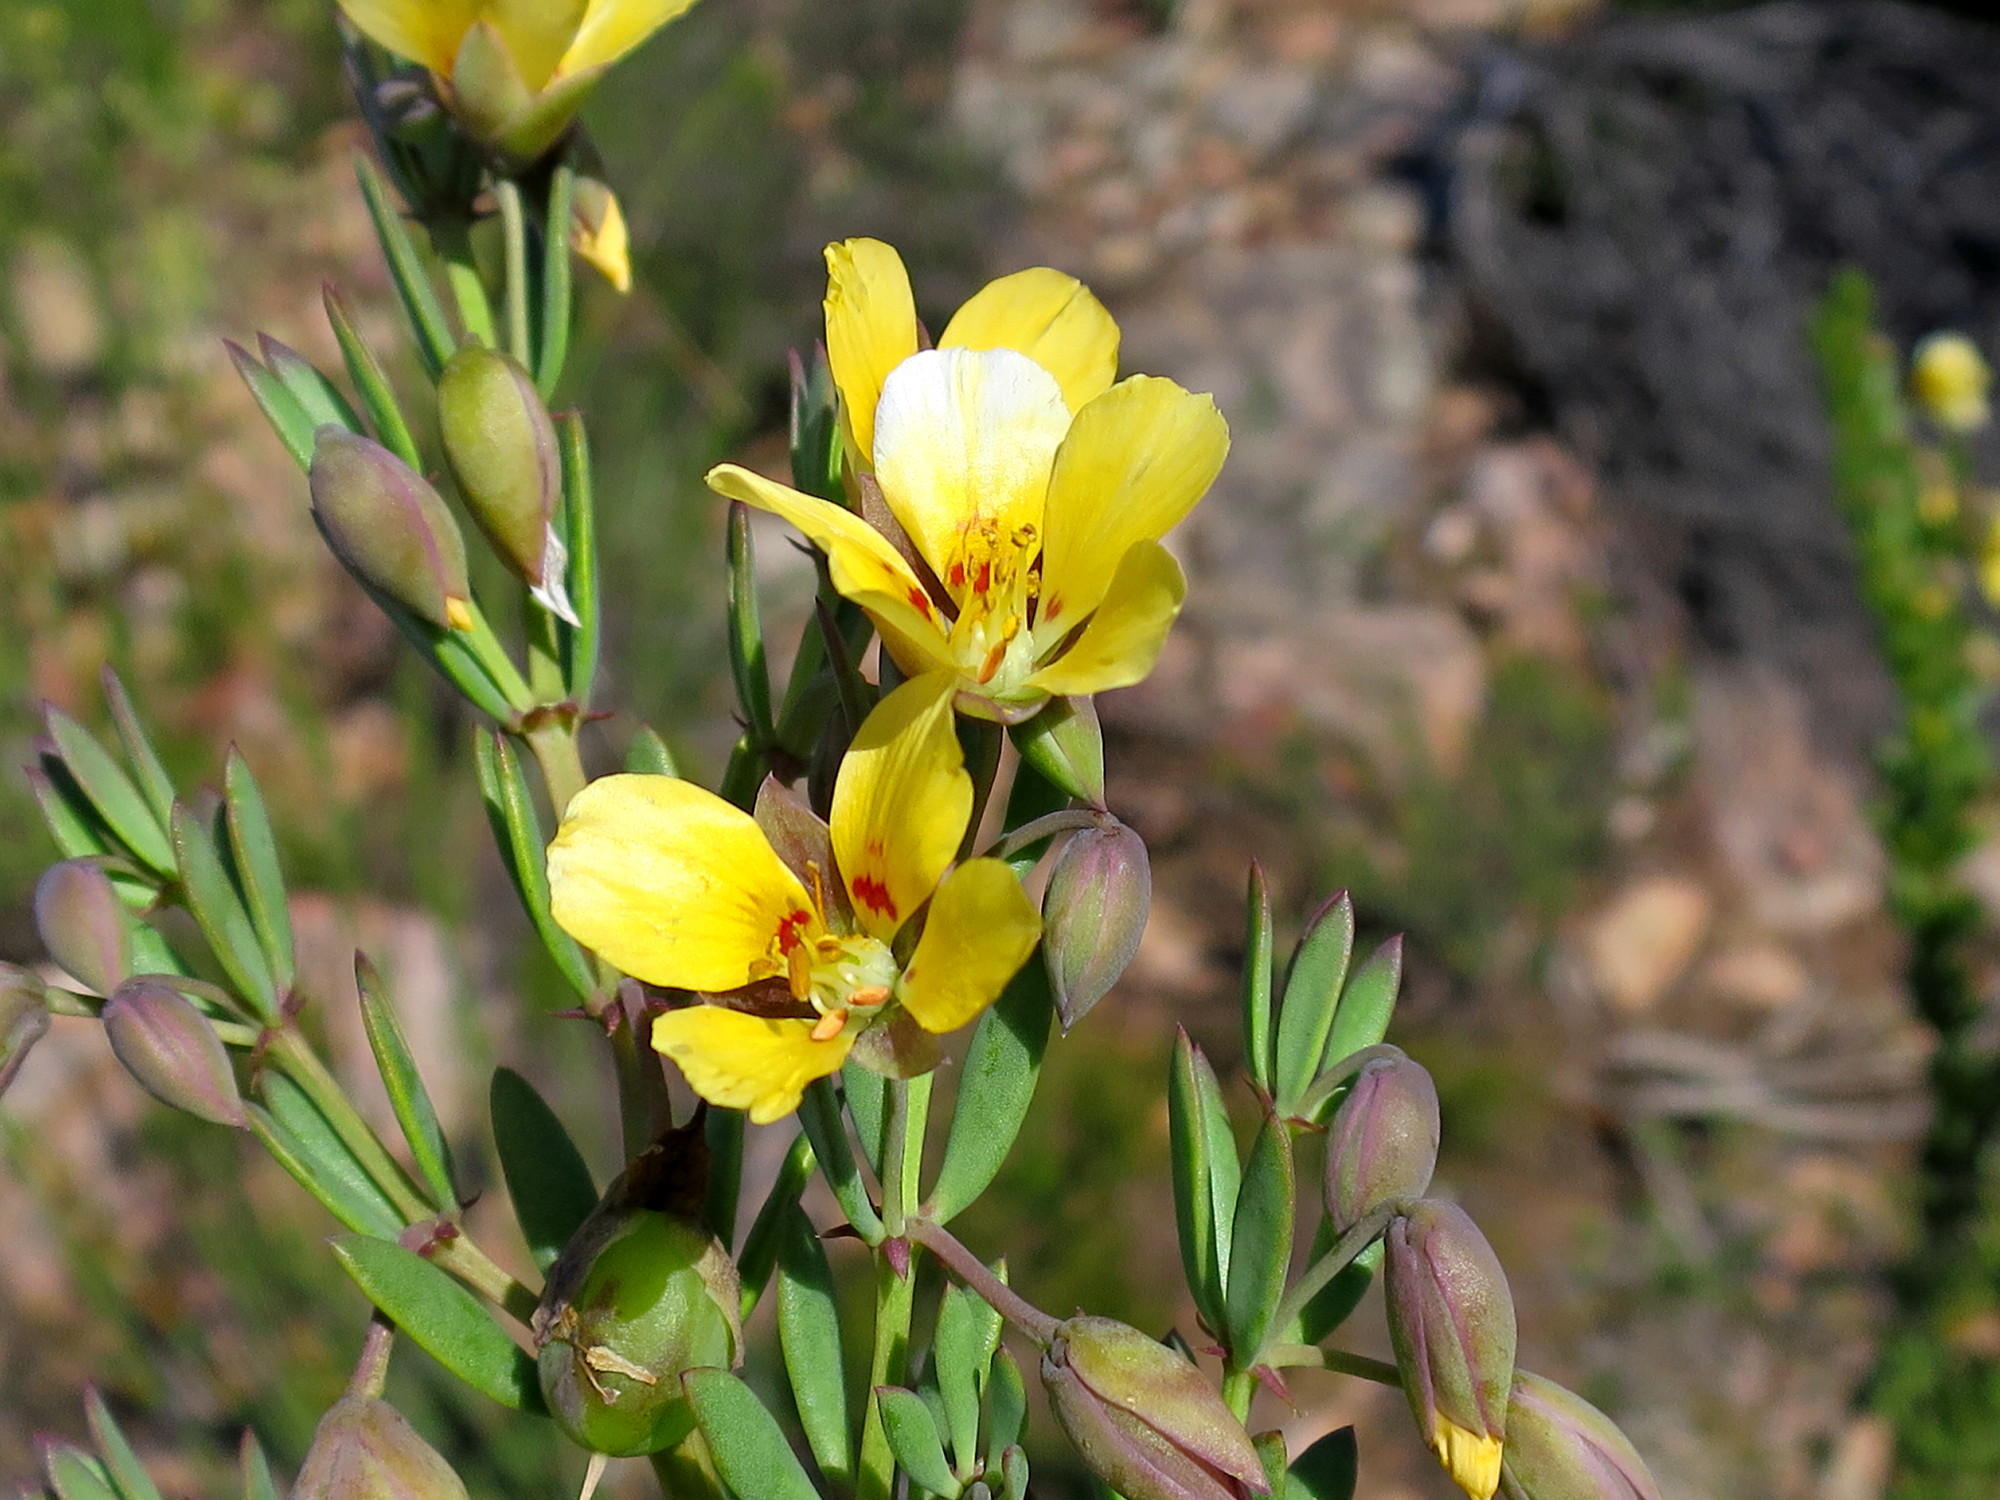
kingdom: Plantae
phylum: Tracheophyta
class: Magnoliopsida
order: Zygophyllales
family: Zygophyllaceae
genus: Roepera
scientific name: Roepera fulva
